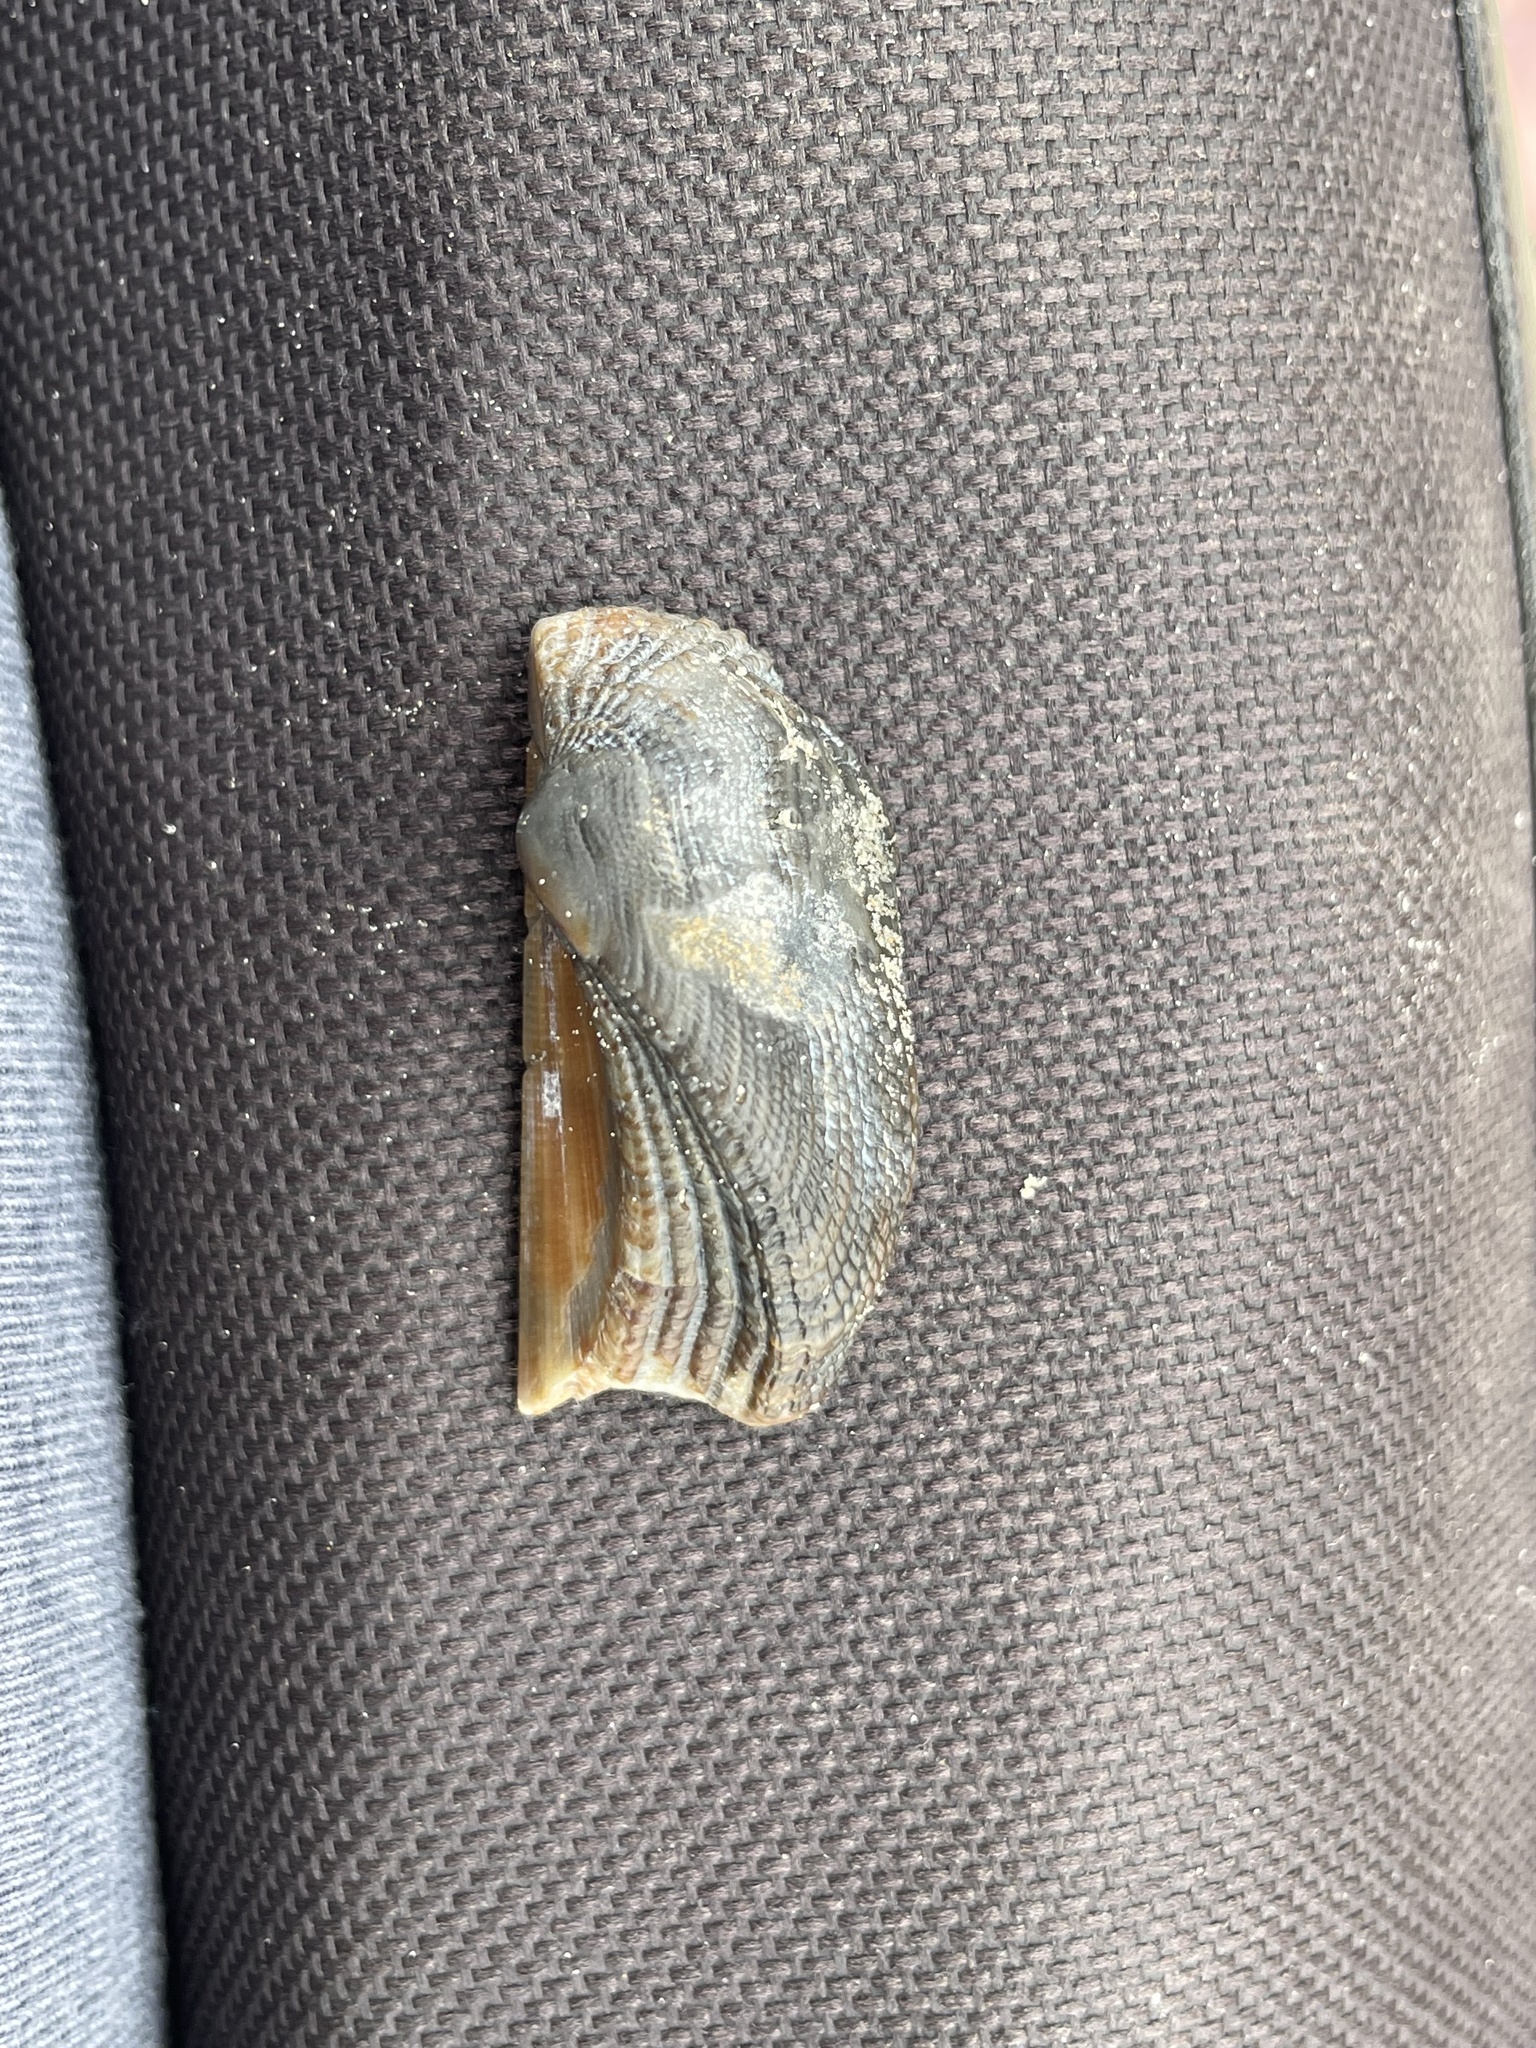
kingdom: Animalia
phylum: Mollusca
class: Bivalvia
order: Arcida
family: Arcidae
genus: Lamarcka
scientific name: Lamarcka imbricata
